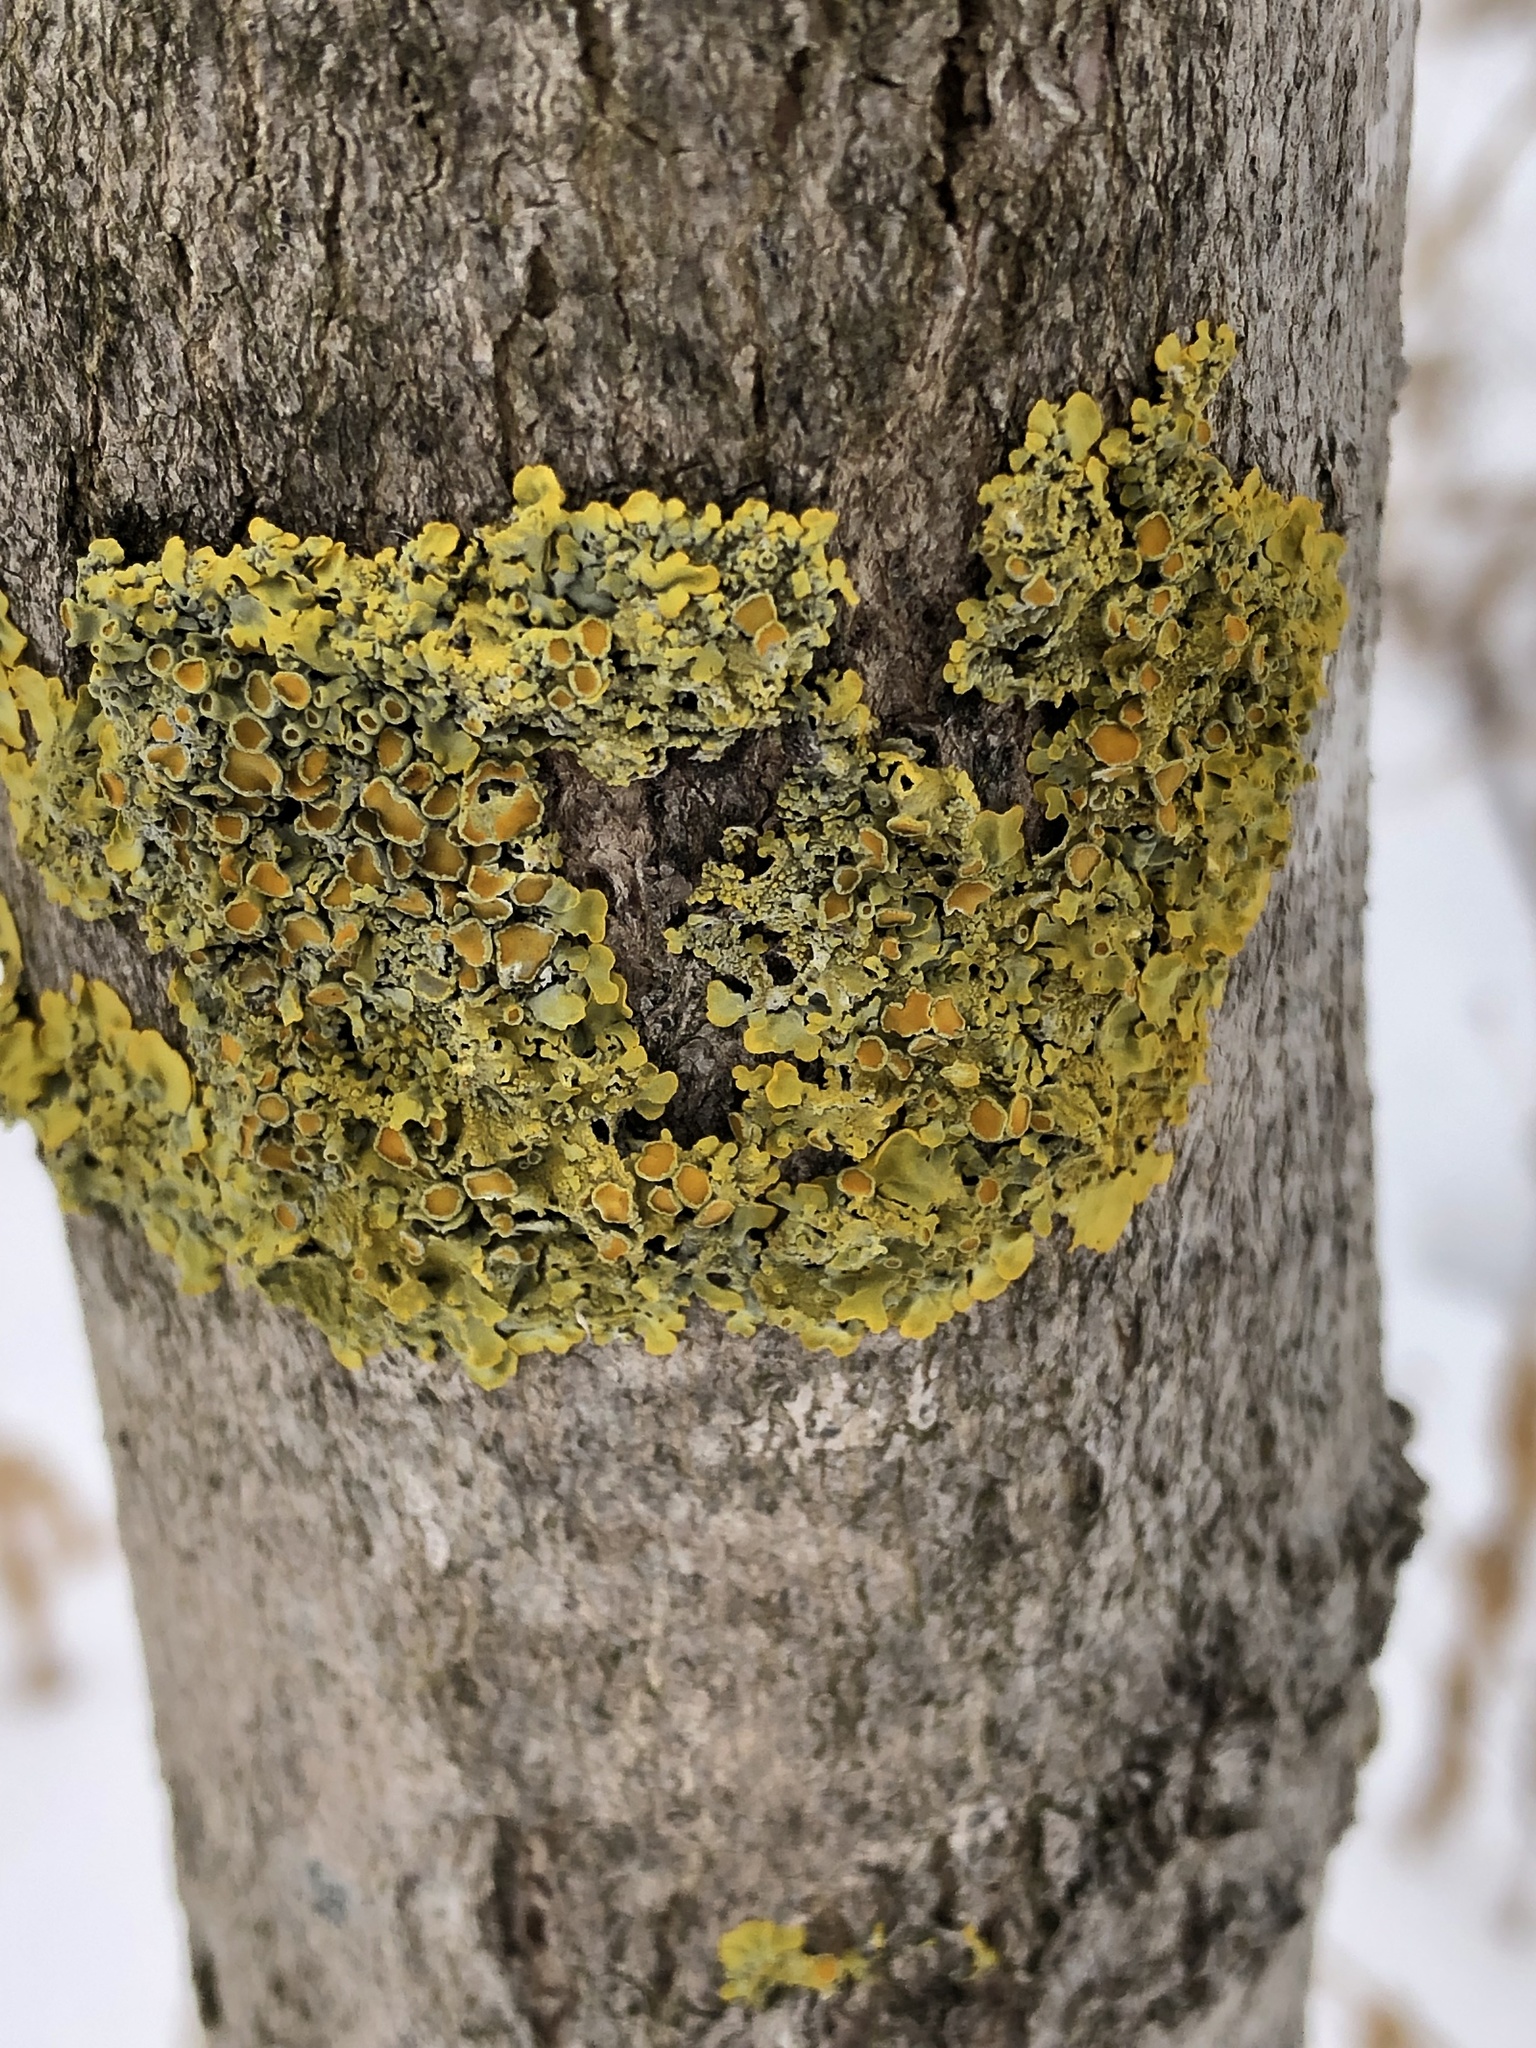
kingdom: Fungi
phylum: Ascomycota
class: Lecanoromycetes
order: Teloschistales
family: Teloschistaceae
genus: Xanthoria
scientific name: Xanthoria parietina
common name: Common orange lichen
